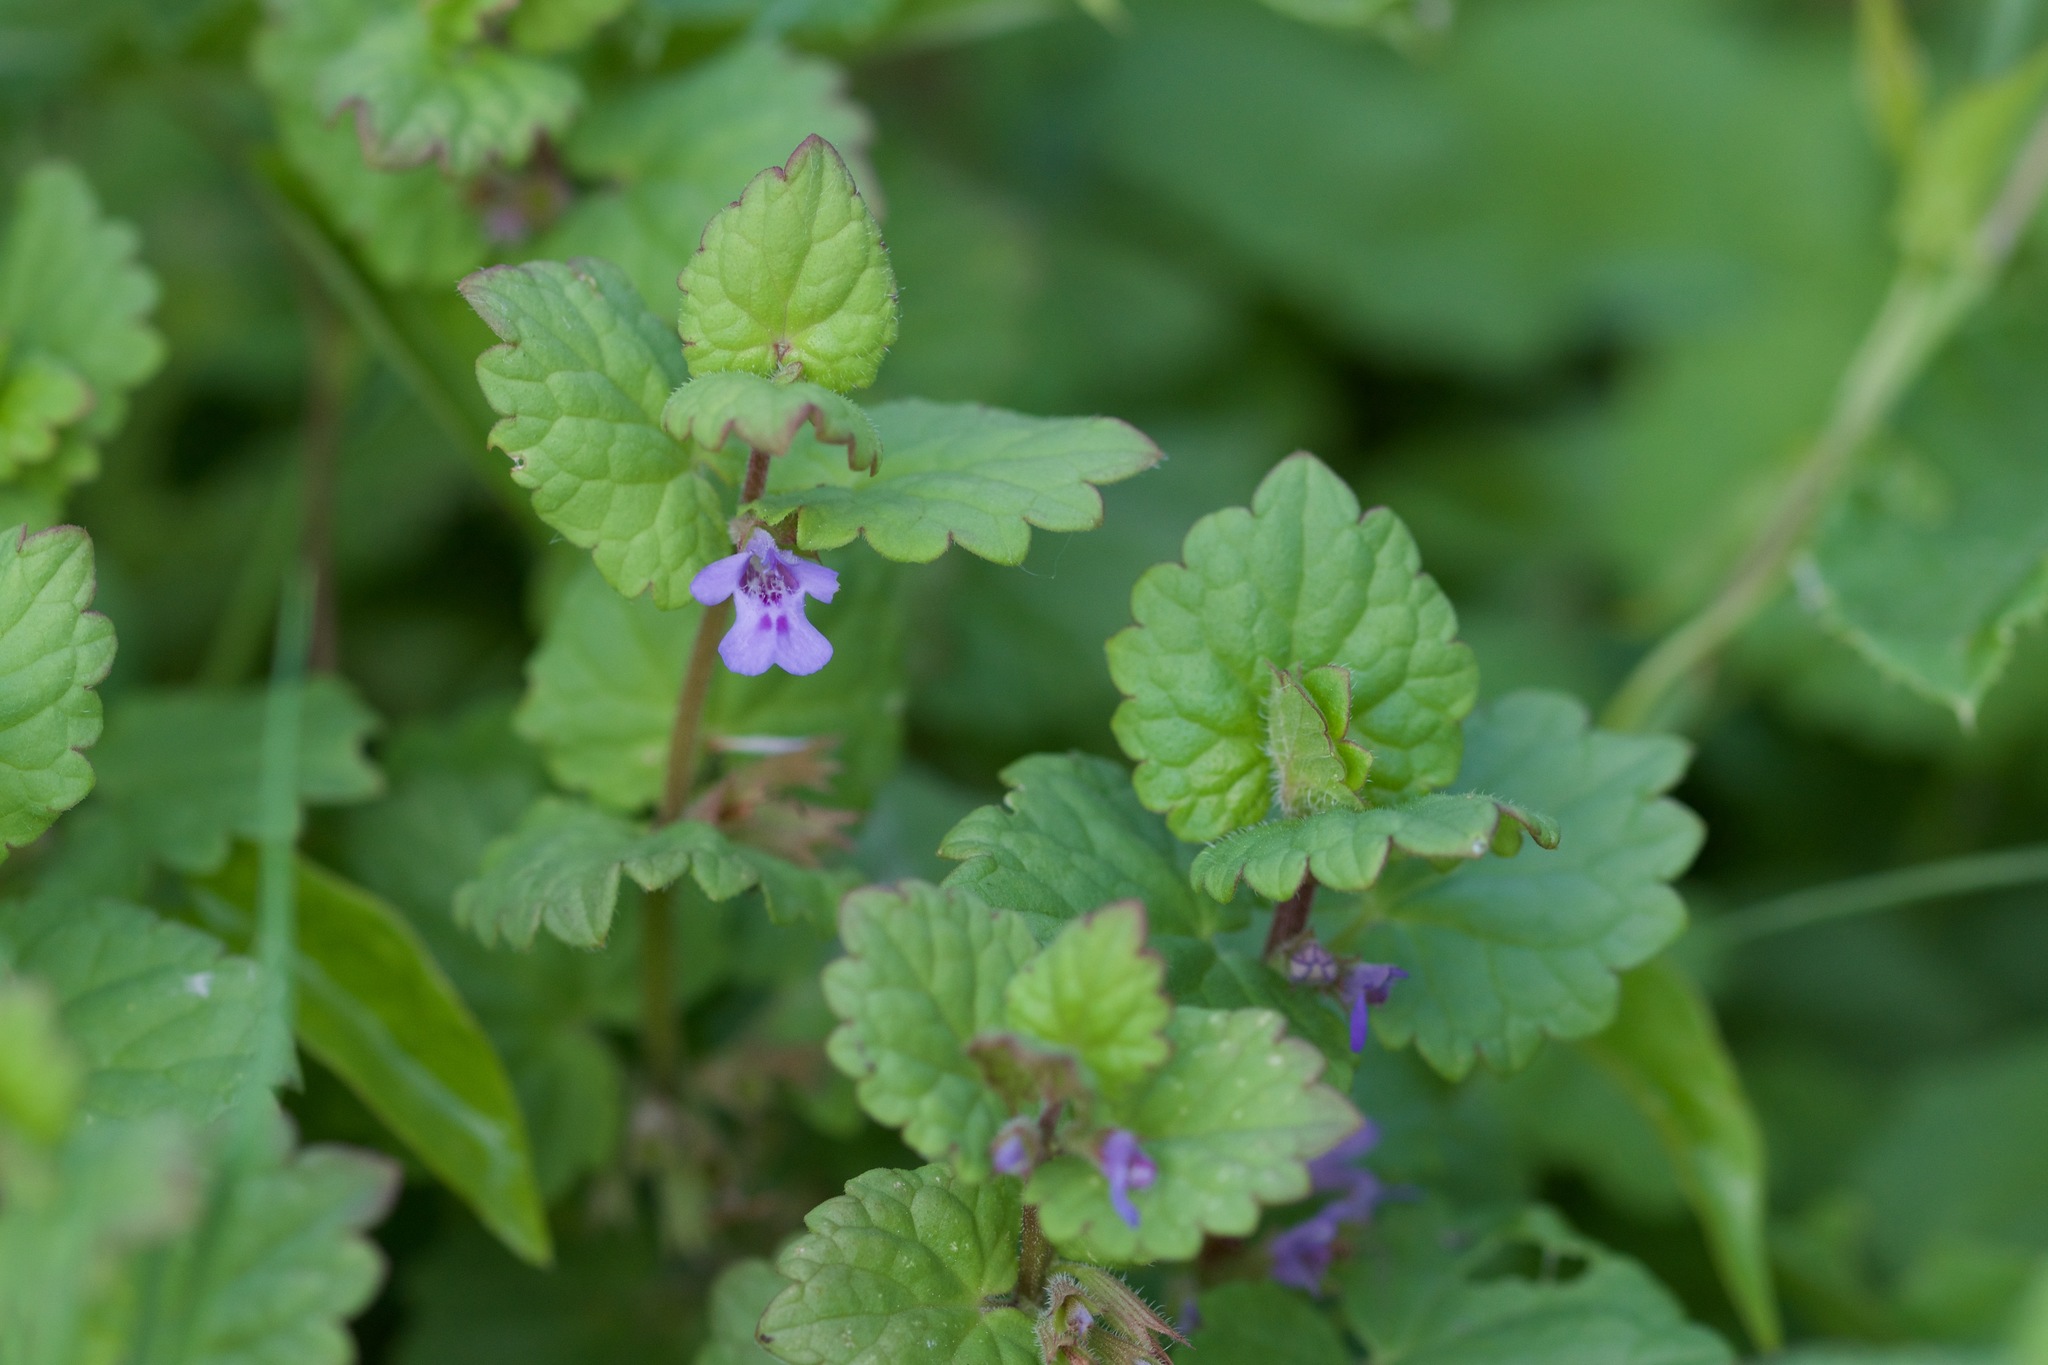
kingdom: Plantae
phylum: Tracheophyta
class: Magnoliopsida
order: Lamiales
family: Lamiaceae
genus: Glechoma
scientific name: Glechoma hederacea
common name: Ground ivy
